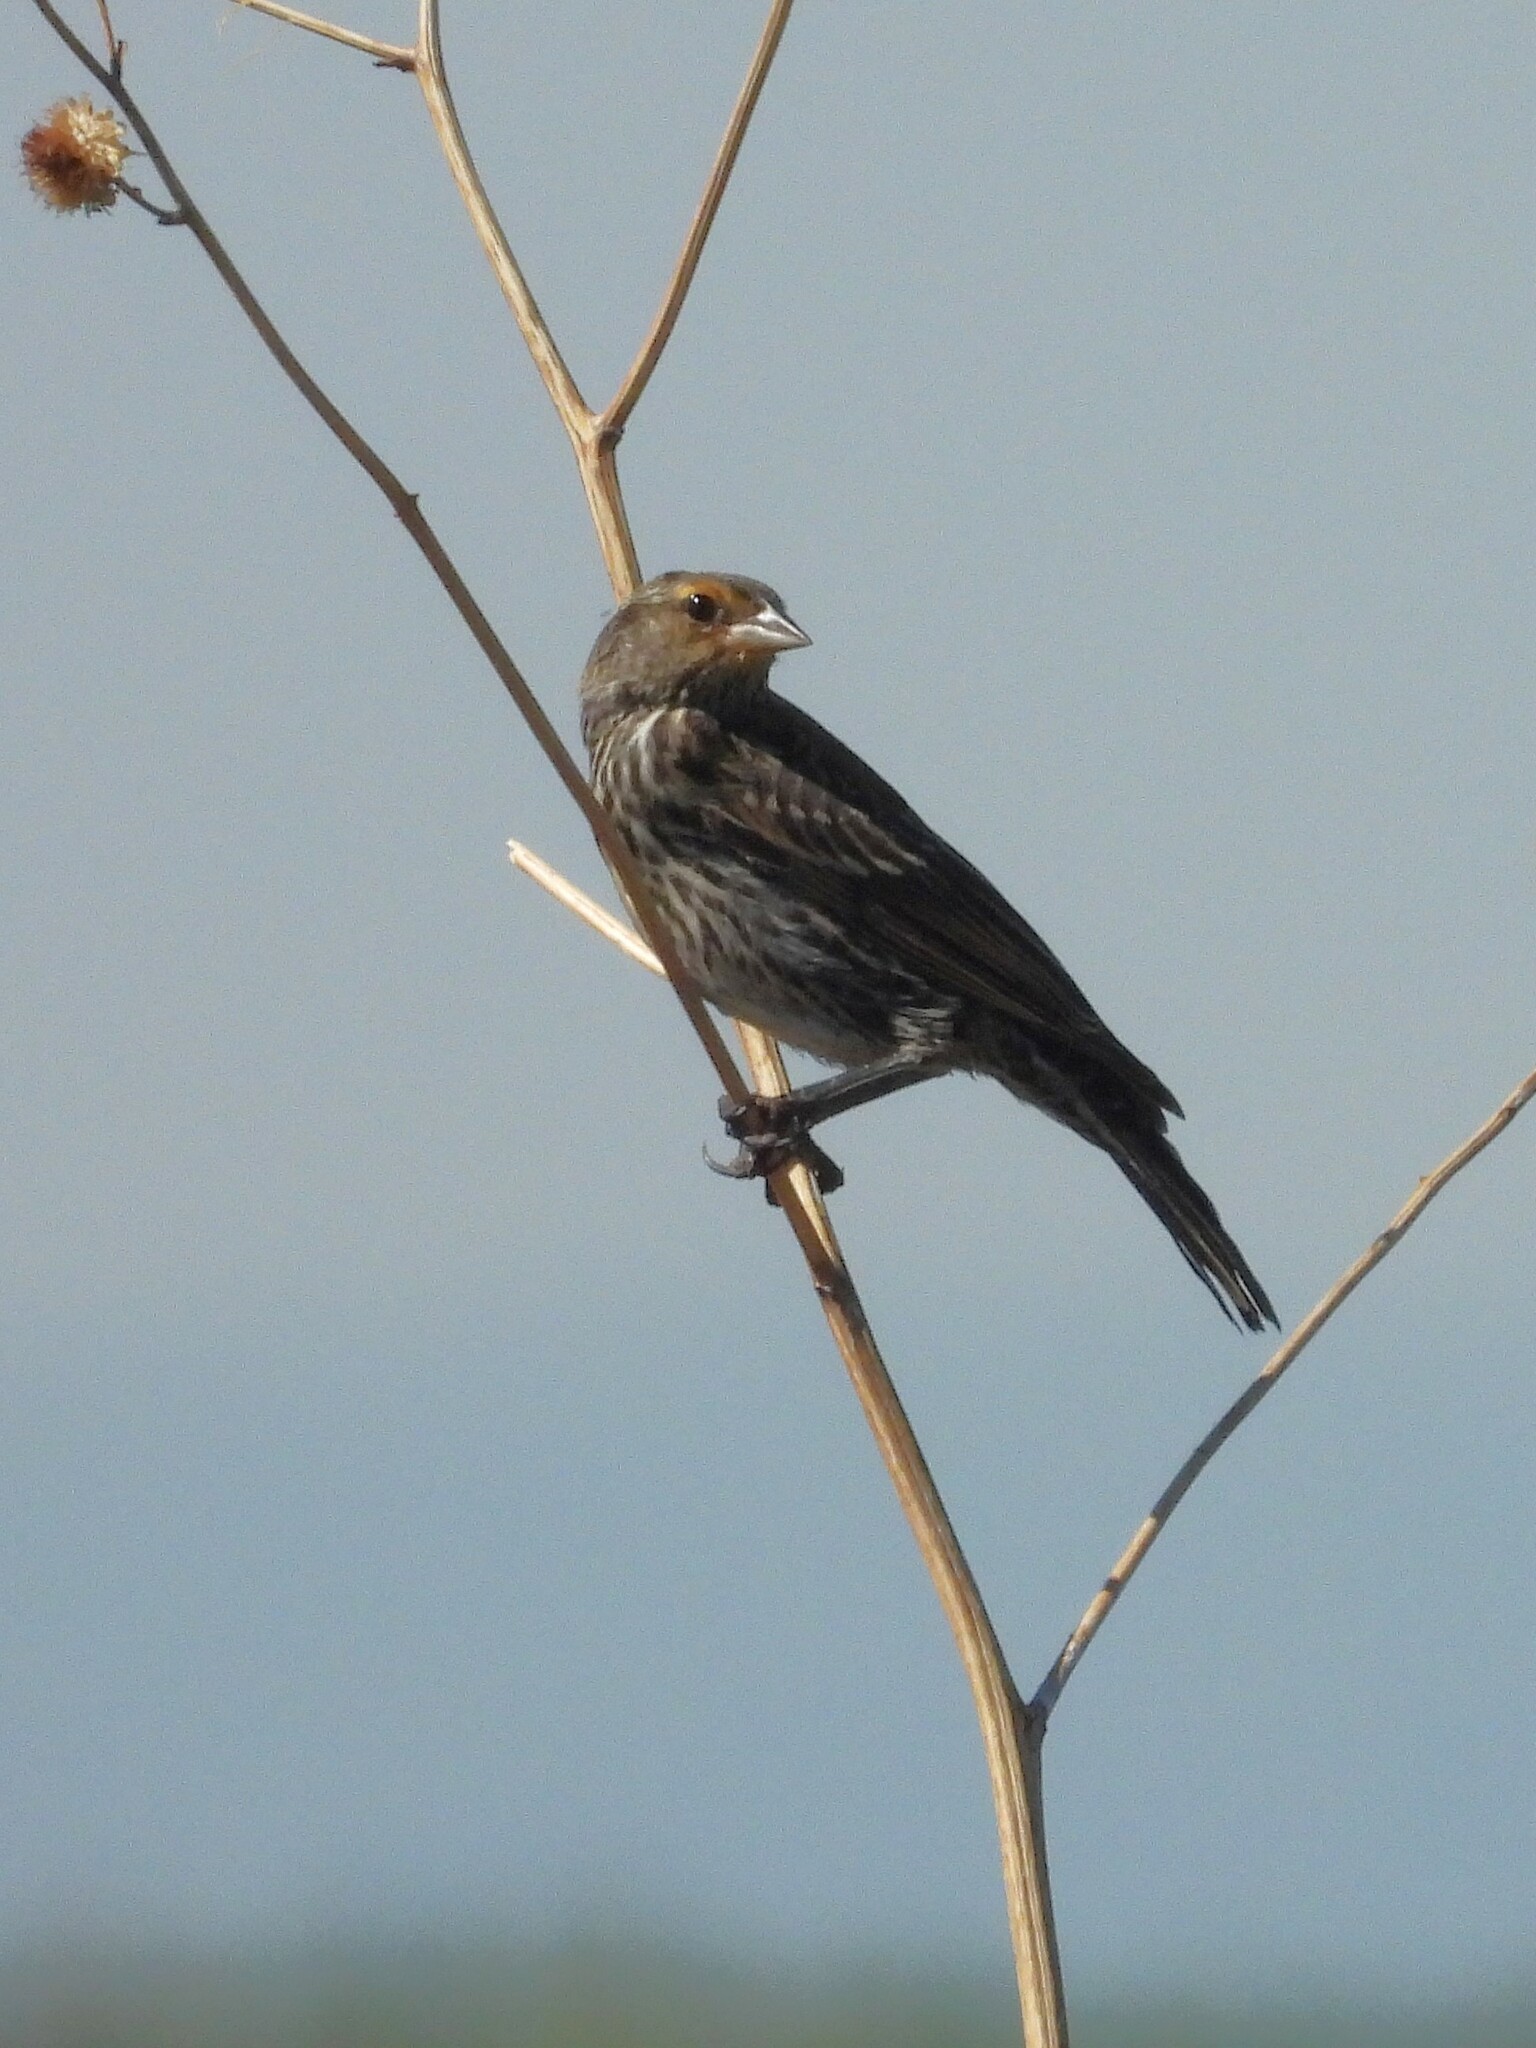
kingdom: Animalia
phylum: Chordata
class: Aves
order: Passeriformes
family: Icteridae
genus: Agelaius
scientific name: Agelaius phoeniceus
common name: Red-winged blackbird
